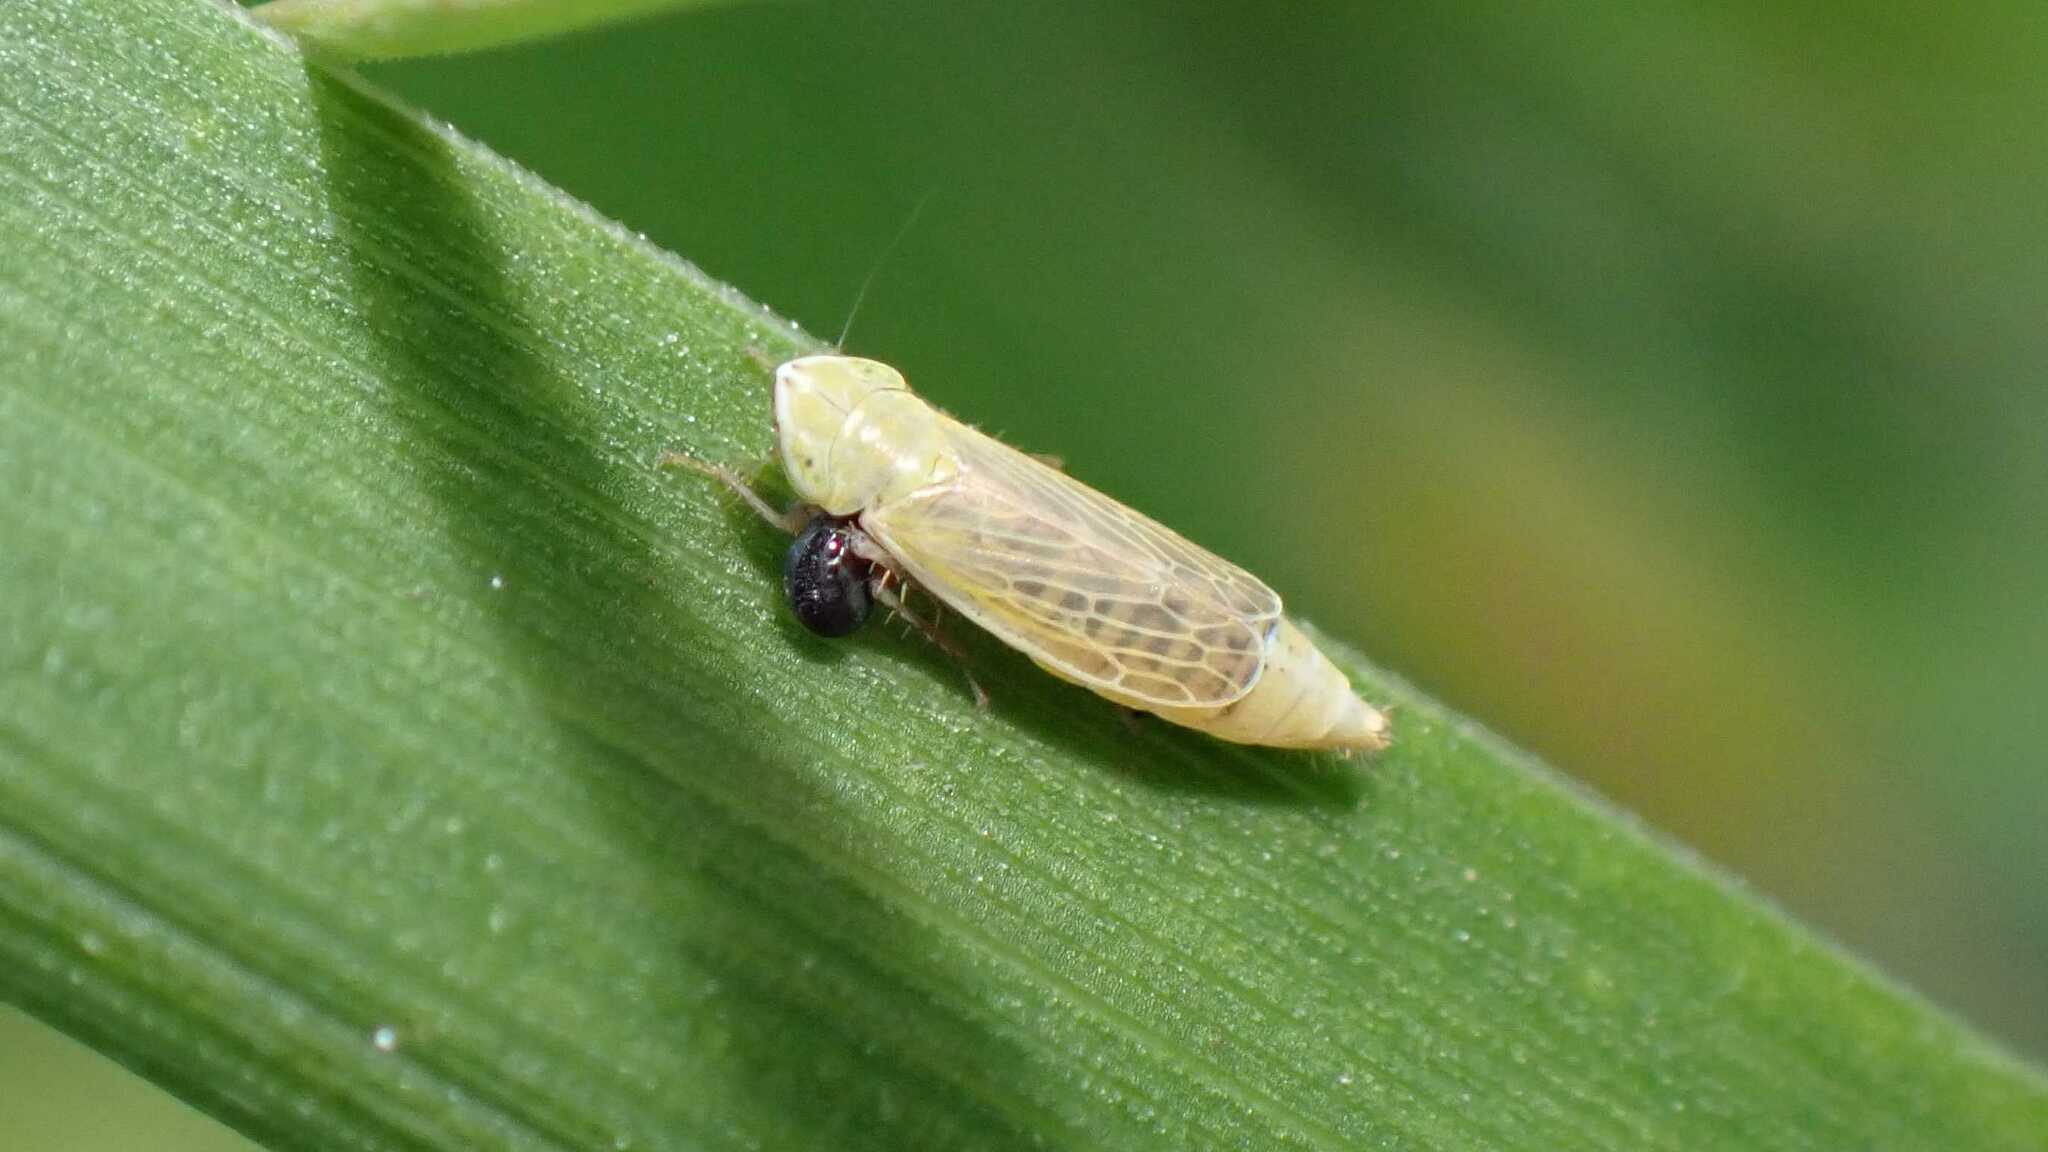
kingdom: Animalia
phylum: Arthropoda
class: Insecta
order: Hemiptera
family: Cicadellidae
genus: Arthaldeus
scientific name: Arthaldeus pascuellus
